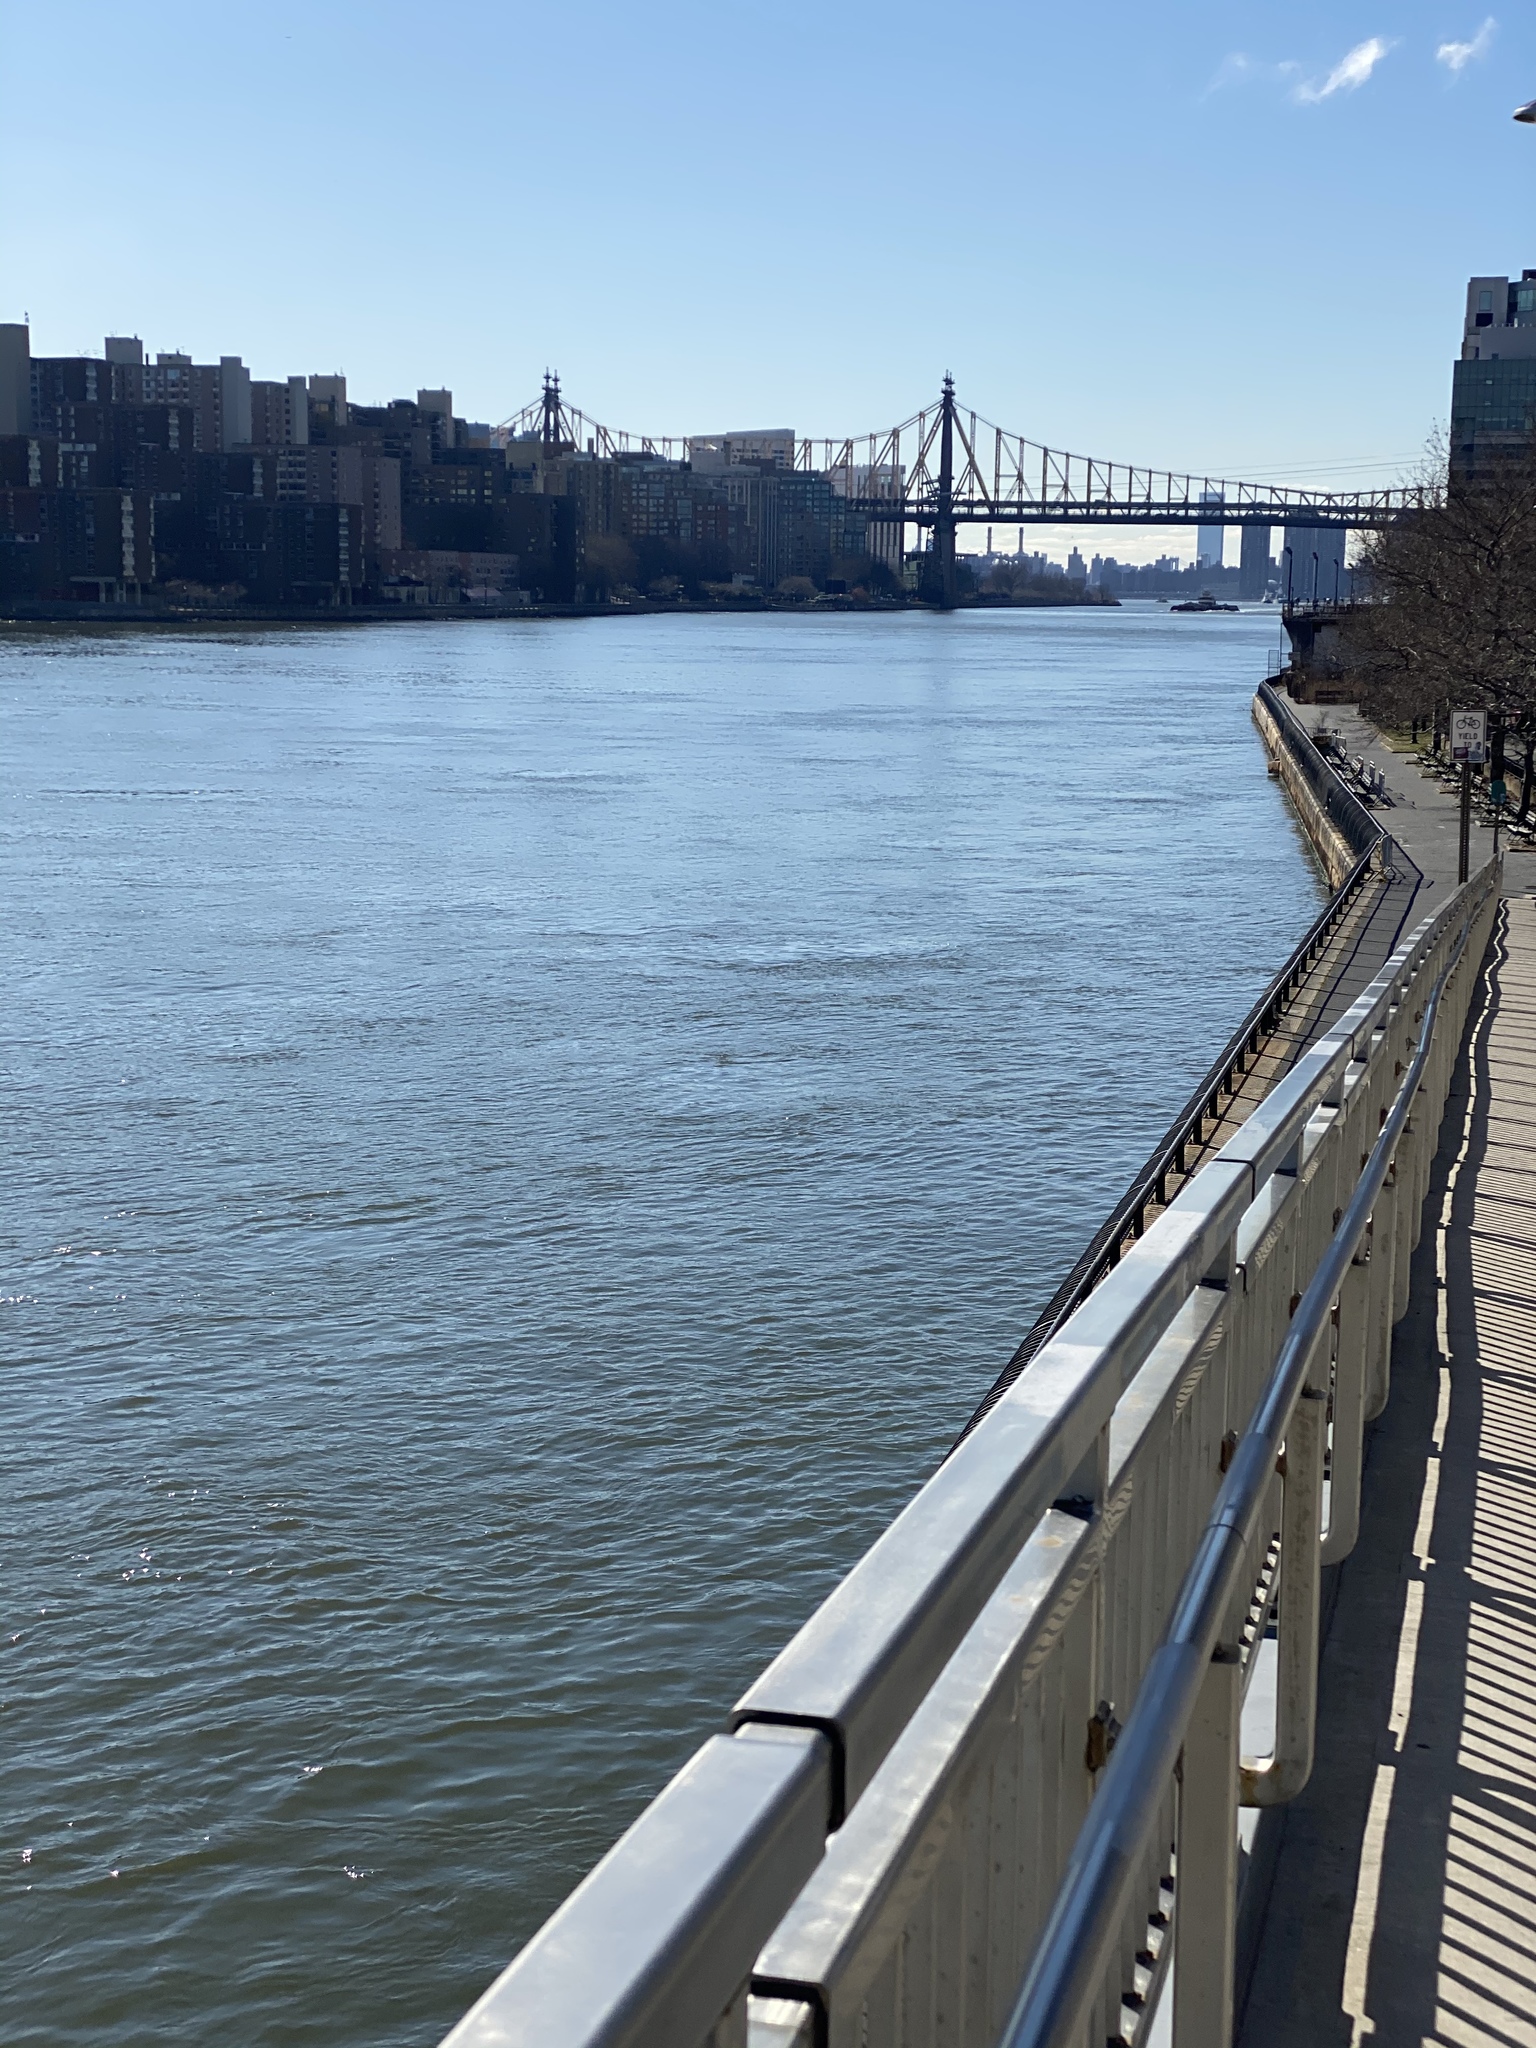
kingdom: Plantae
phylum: Tracheophyta
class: Magnoliopsida
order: Malvales
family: Malvaceae
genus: Malva
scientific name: Malva neglecta
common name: Common mallow
